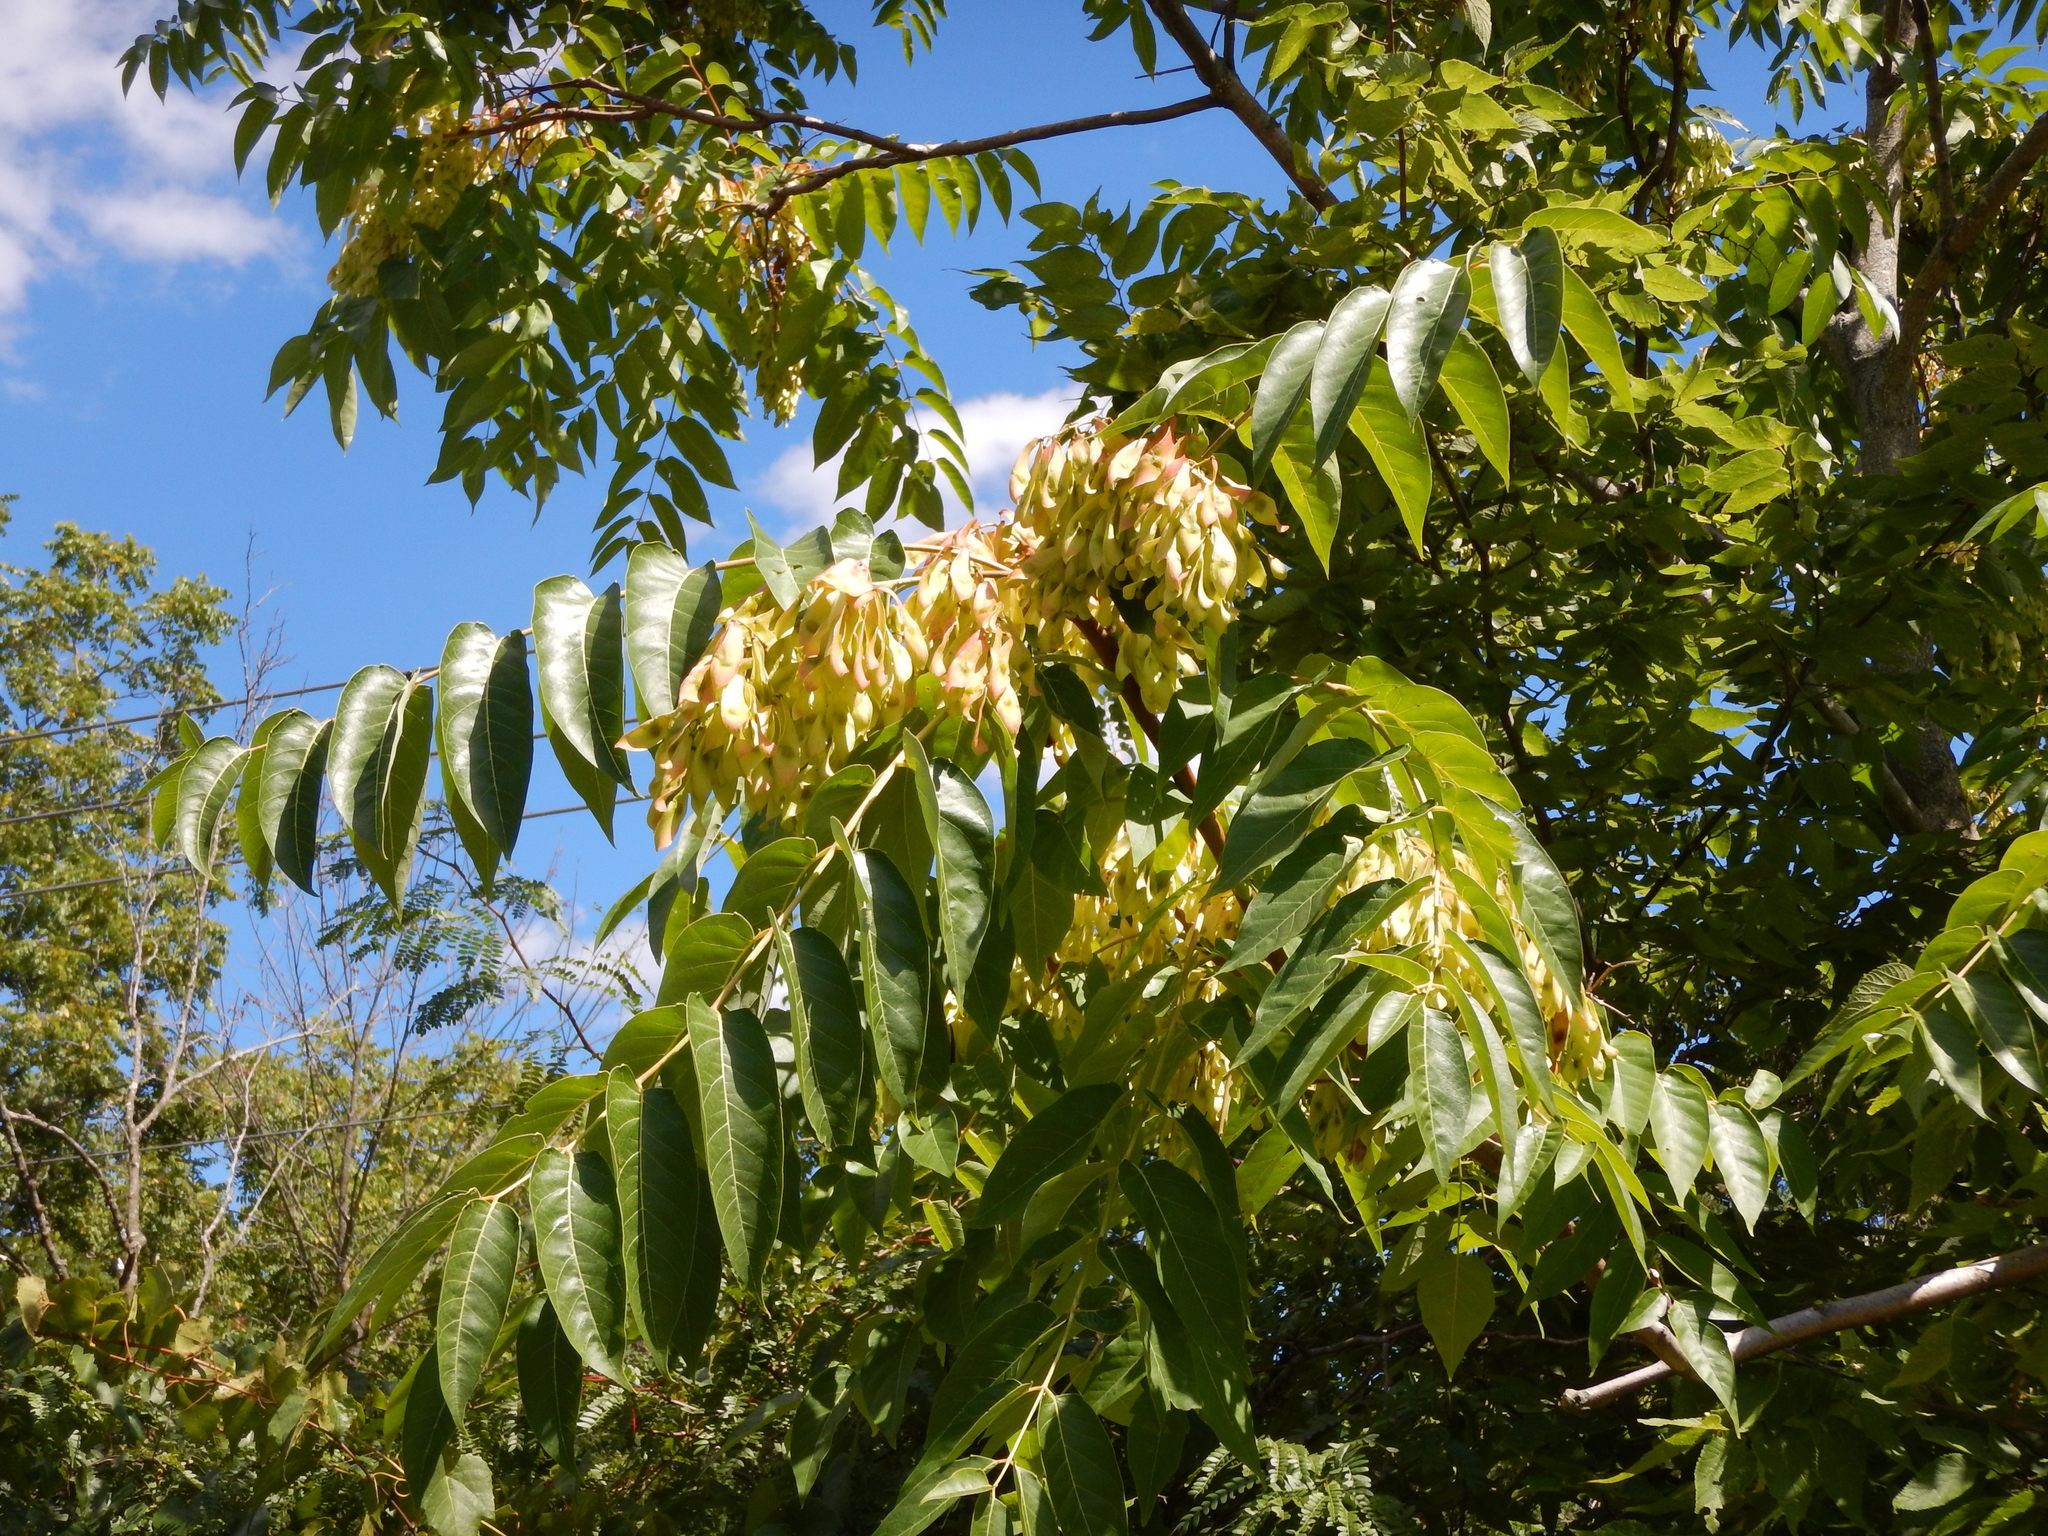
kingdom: Plantae
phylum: Tracheophyta
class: Magnoliopsida
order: Sapindales
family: Simaroubaceae
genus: Ailanthus
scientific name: Ailanthus altissima
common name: Tree-of-heaven
